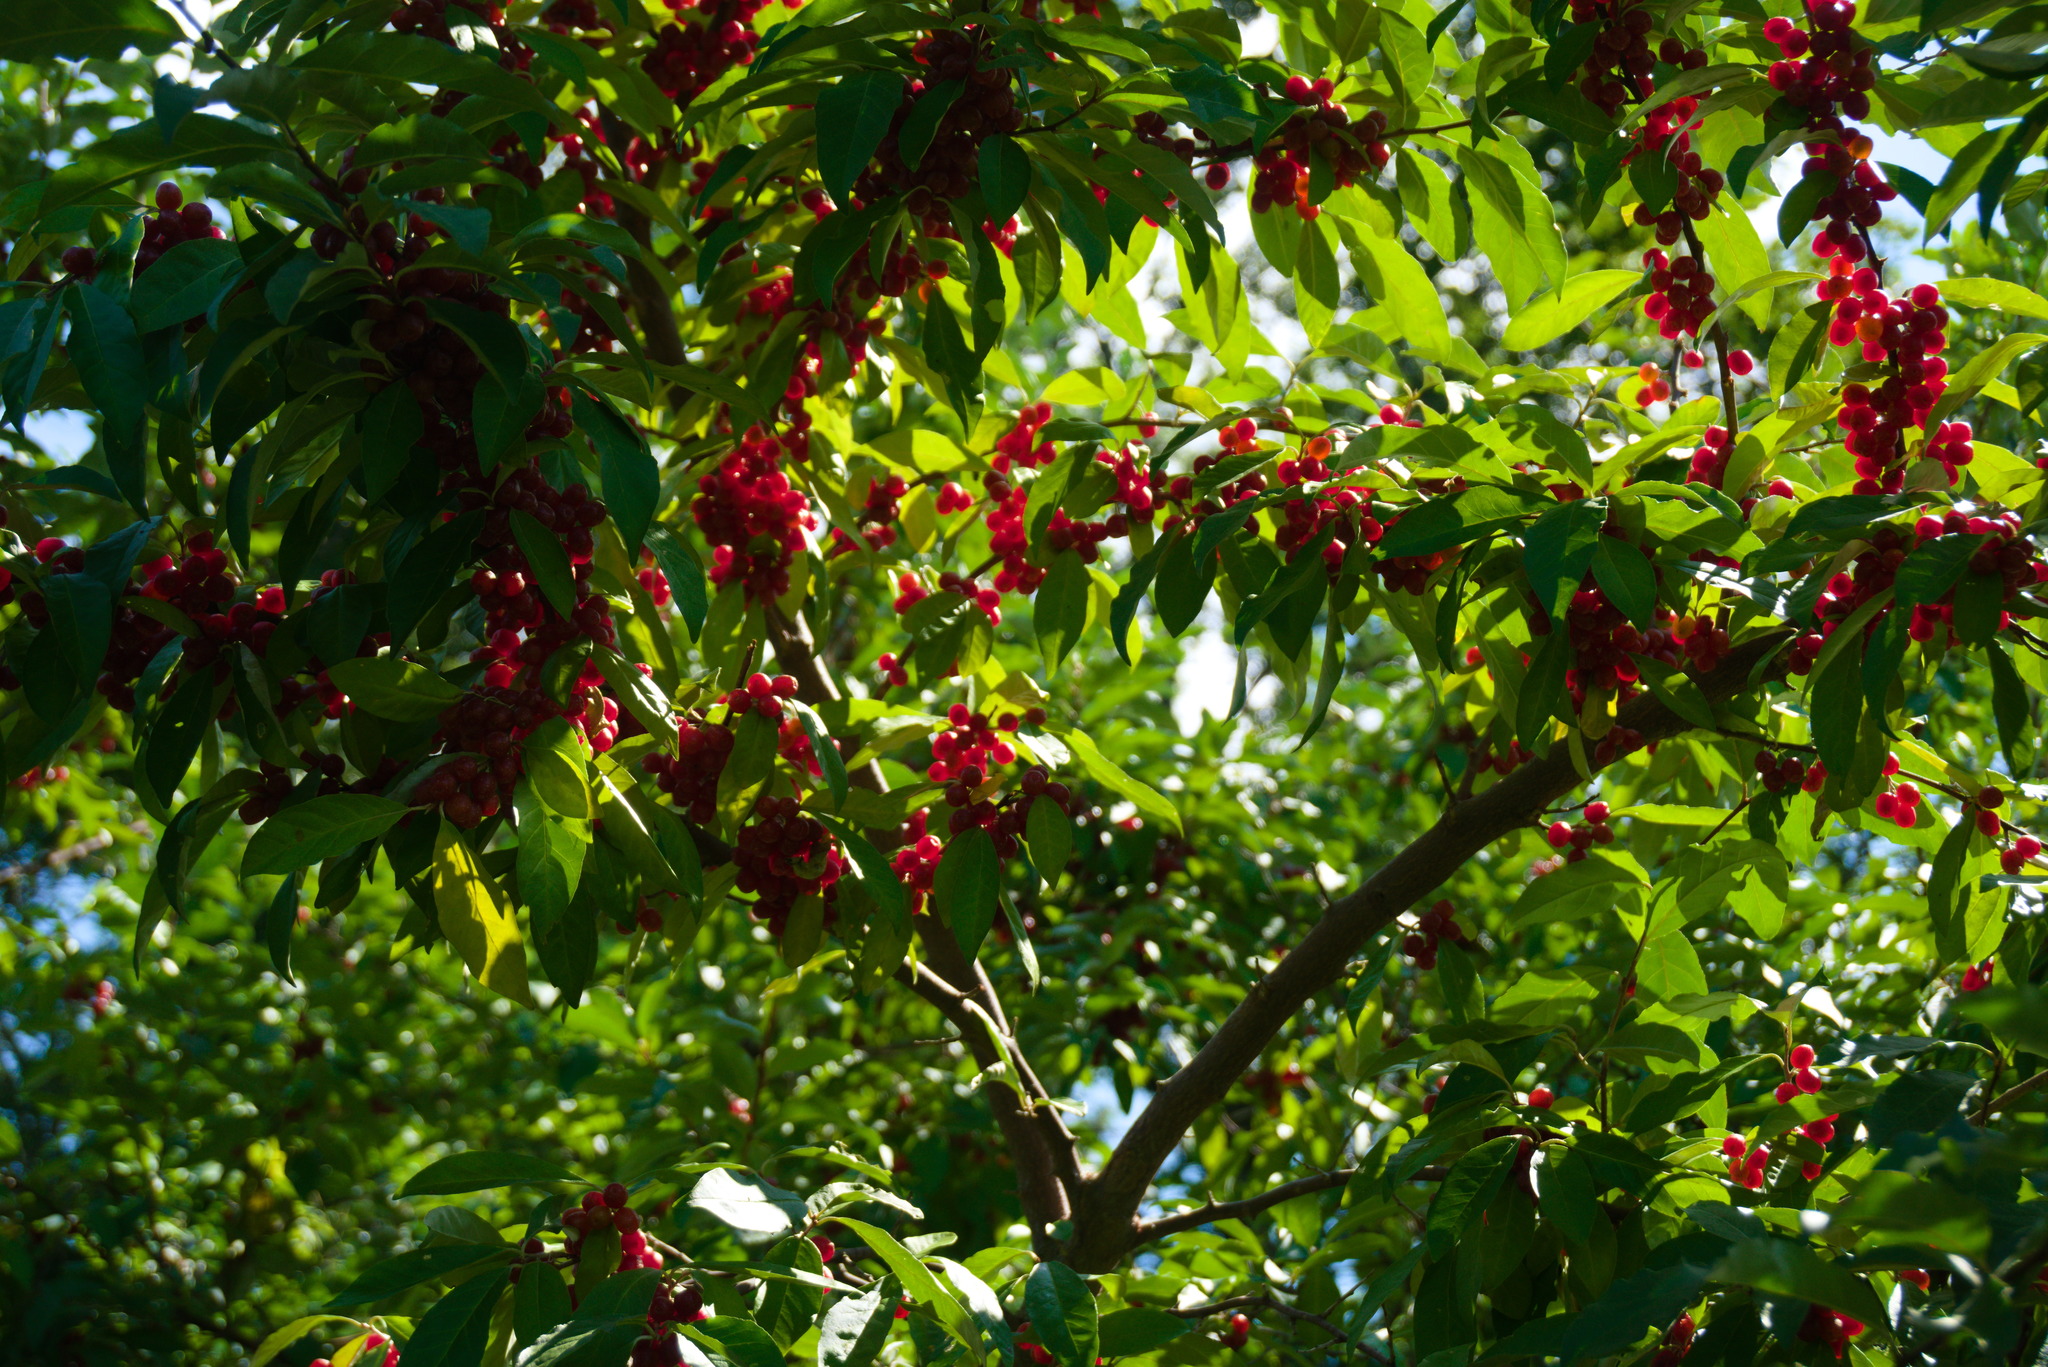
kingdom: Plantae
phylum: Tracheophyta
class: Magnoliopsida
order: Rosales
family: Elaeagnaceae
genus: Elaeagnus
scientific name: Elaeagnus umbellata
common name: Autumn olive
